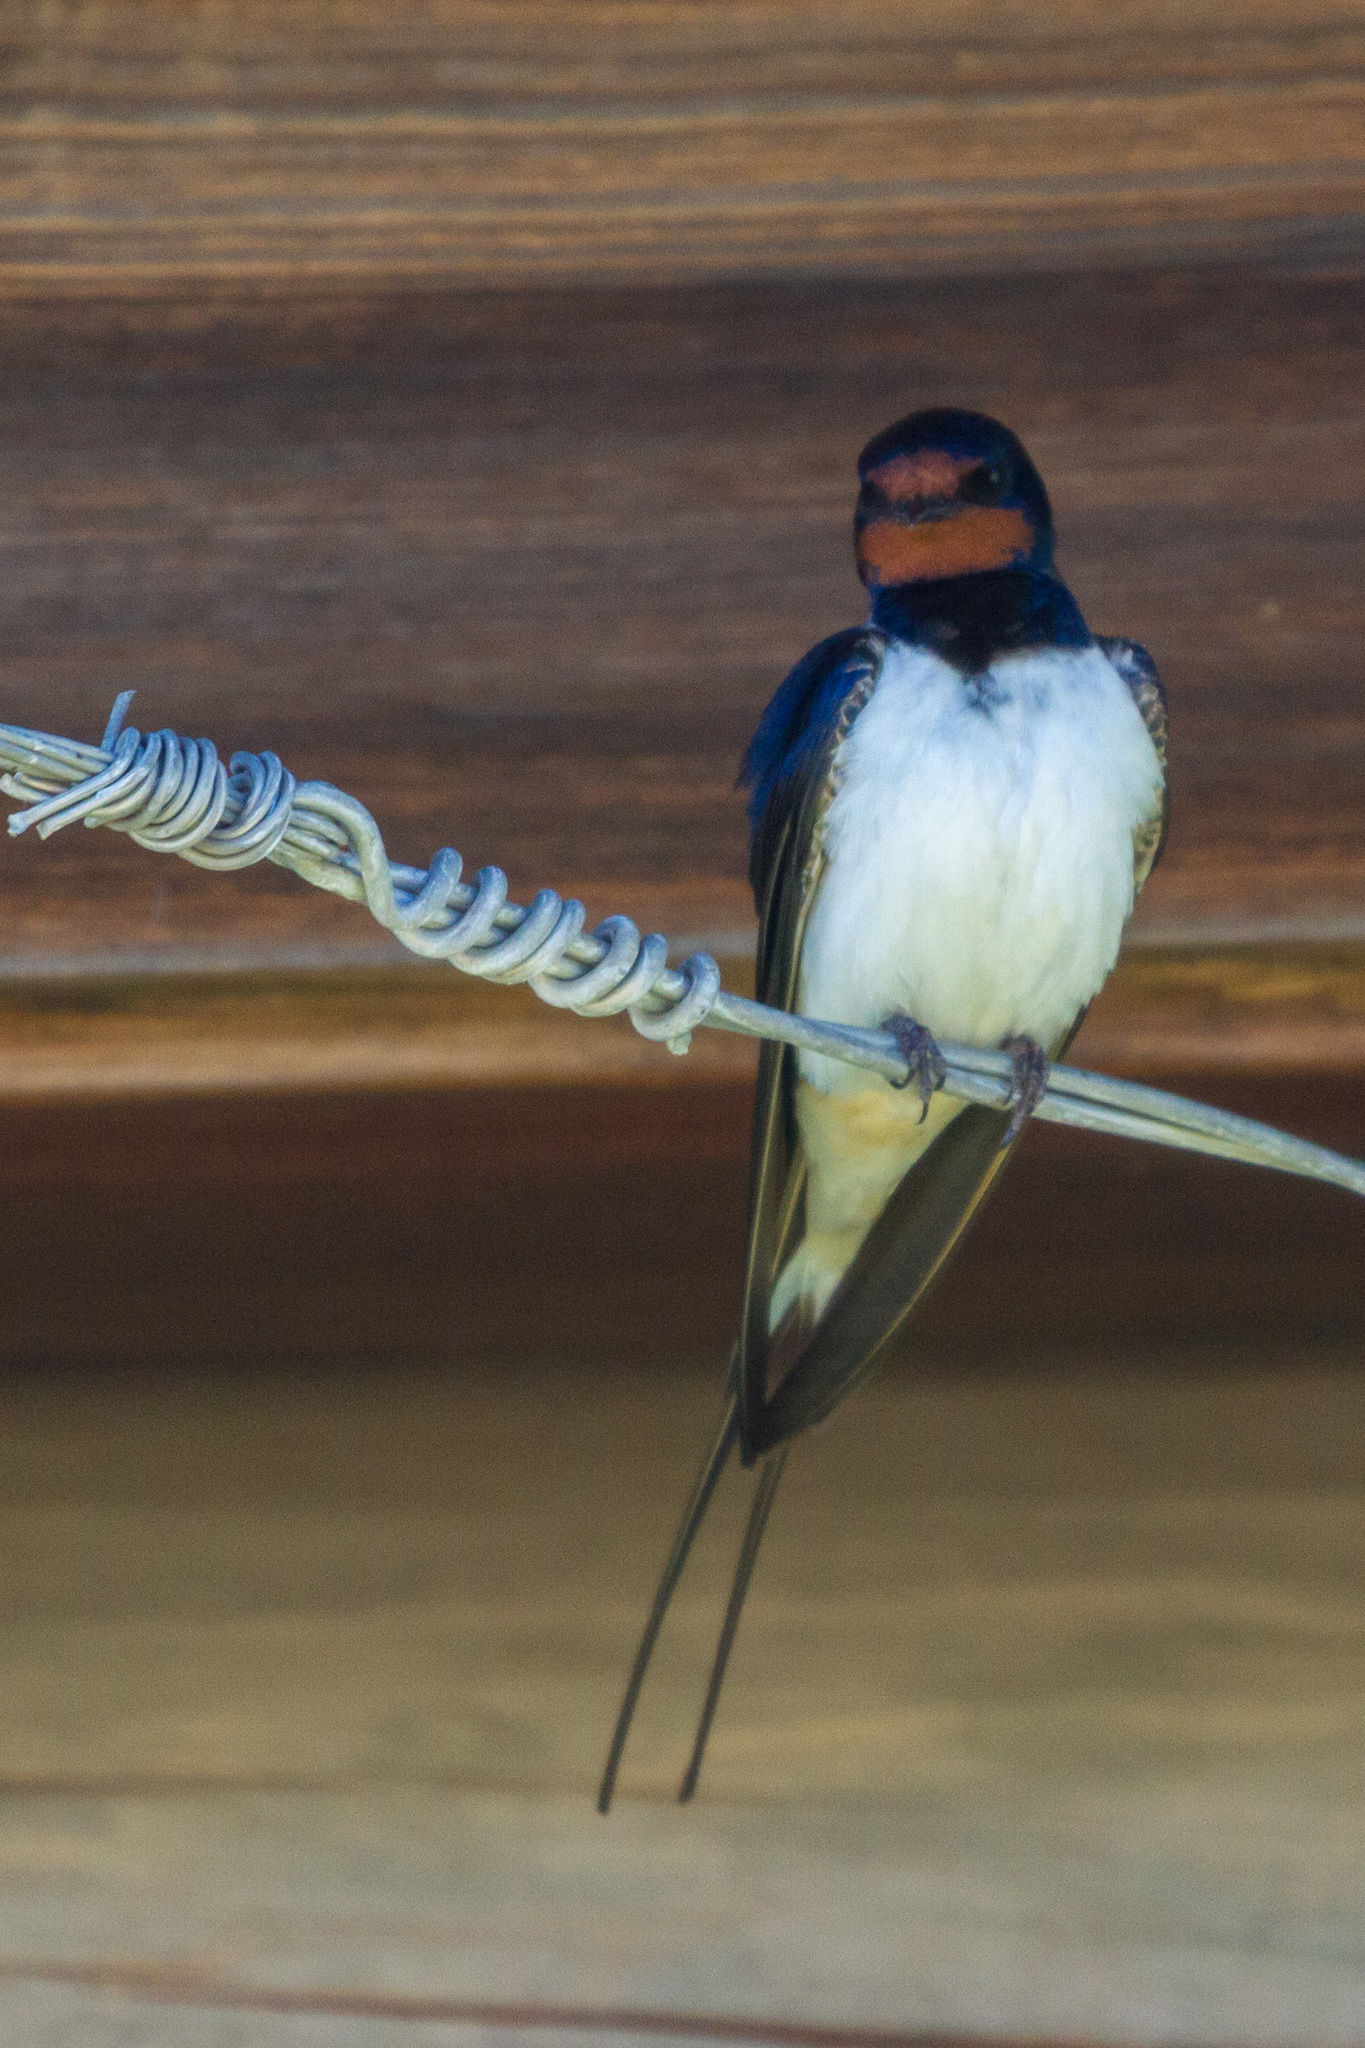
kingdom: Animalia
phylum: Chordata
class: Aves
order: Passeriformes
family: Hirundinidae
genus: Hirundo
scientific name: Hirundo rustica
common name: Barn swallow
